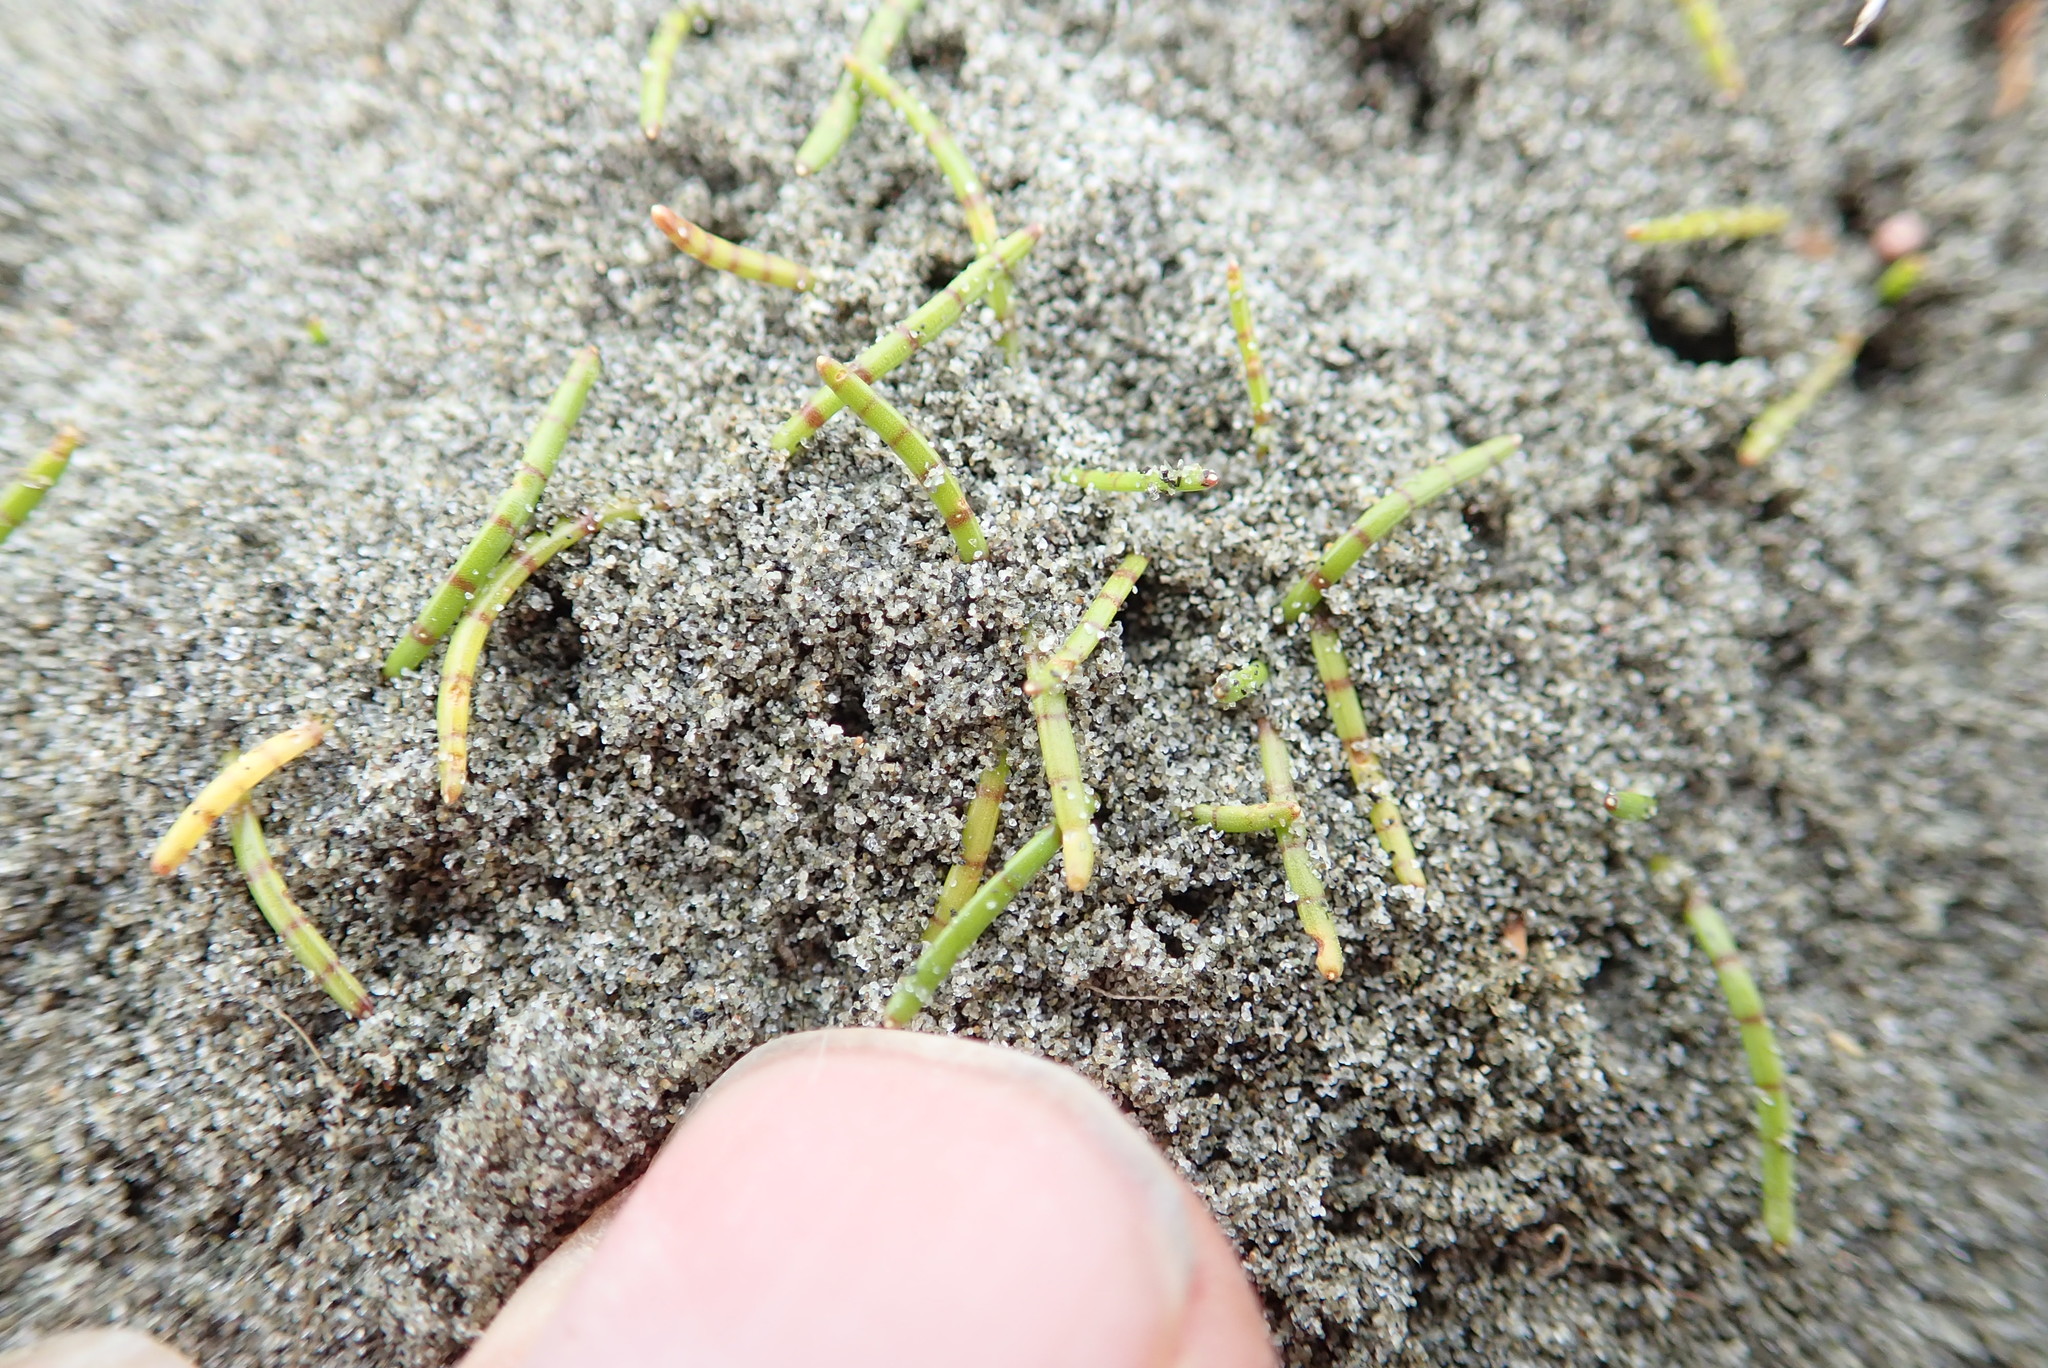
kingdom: Plantae
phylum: Tracheophyta
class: Magnoliopsida
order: Apiales
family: Apiaceae
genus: Lilaeopsis
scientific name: Lilaeopsis novae-zelandiae
